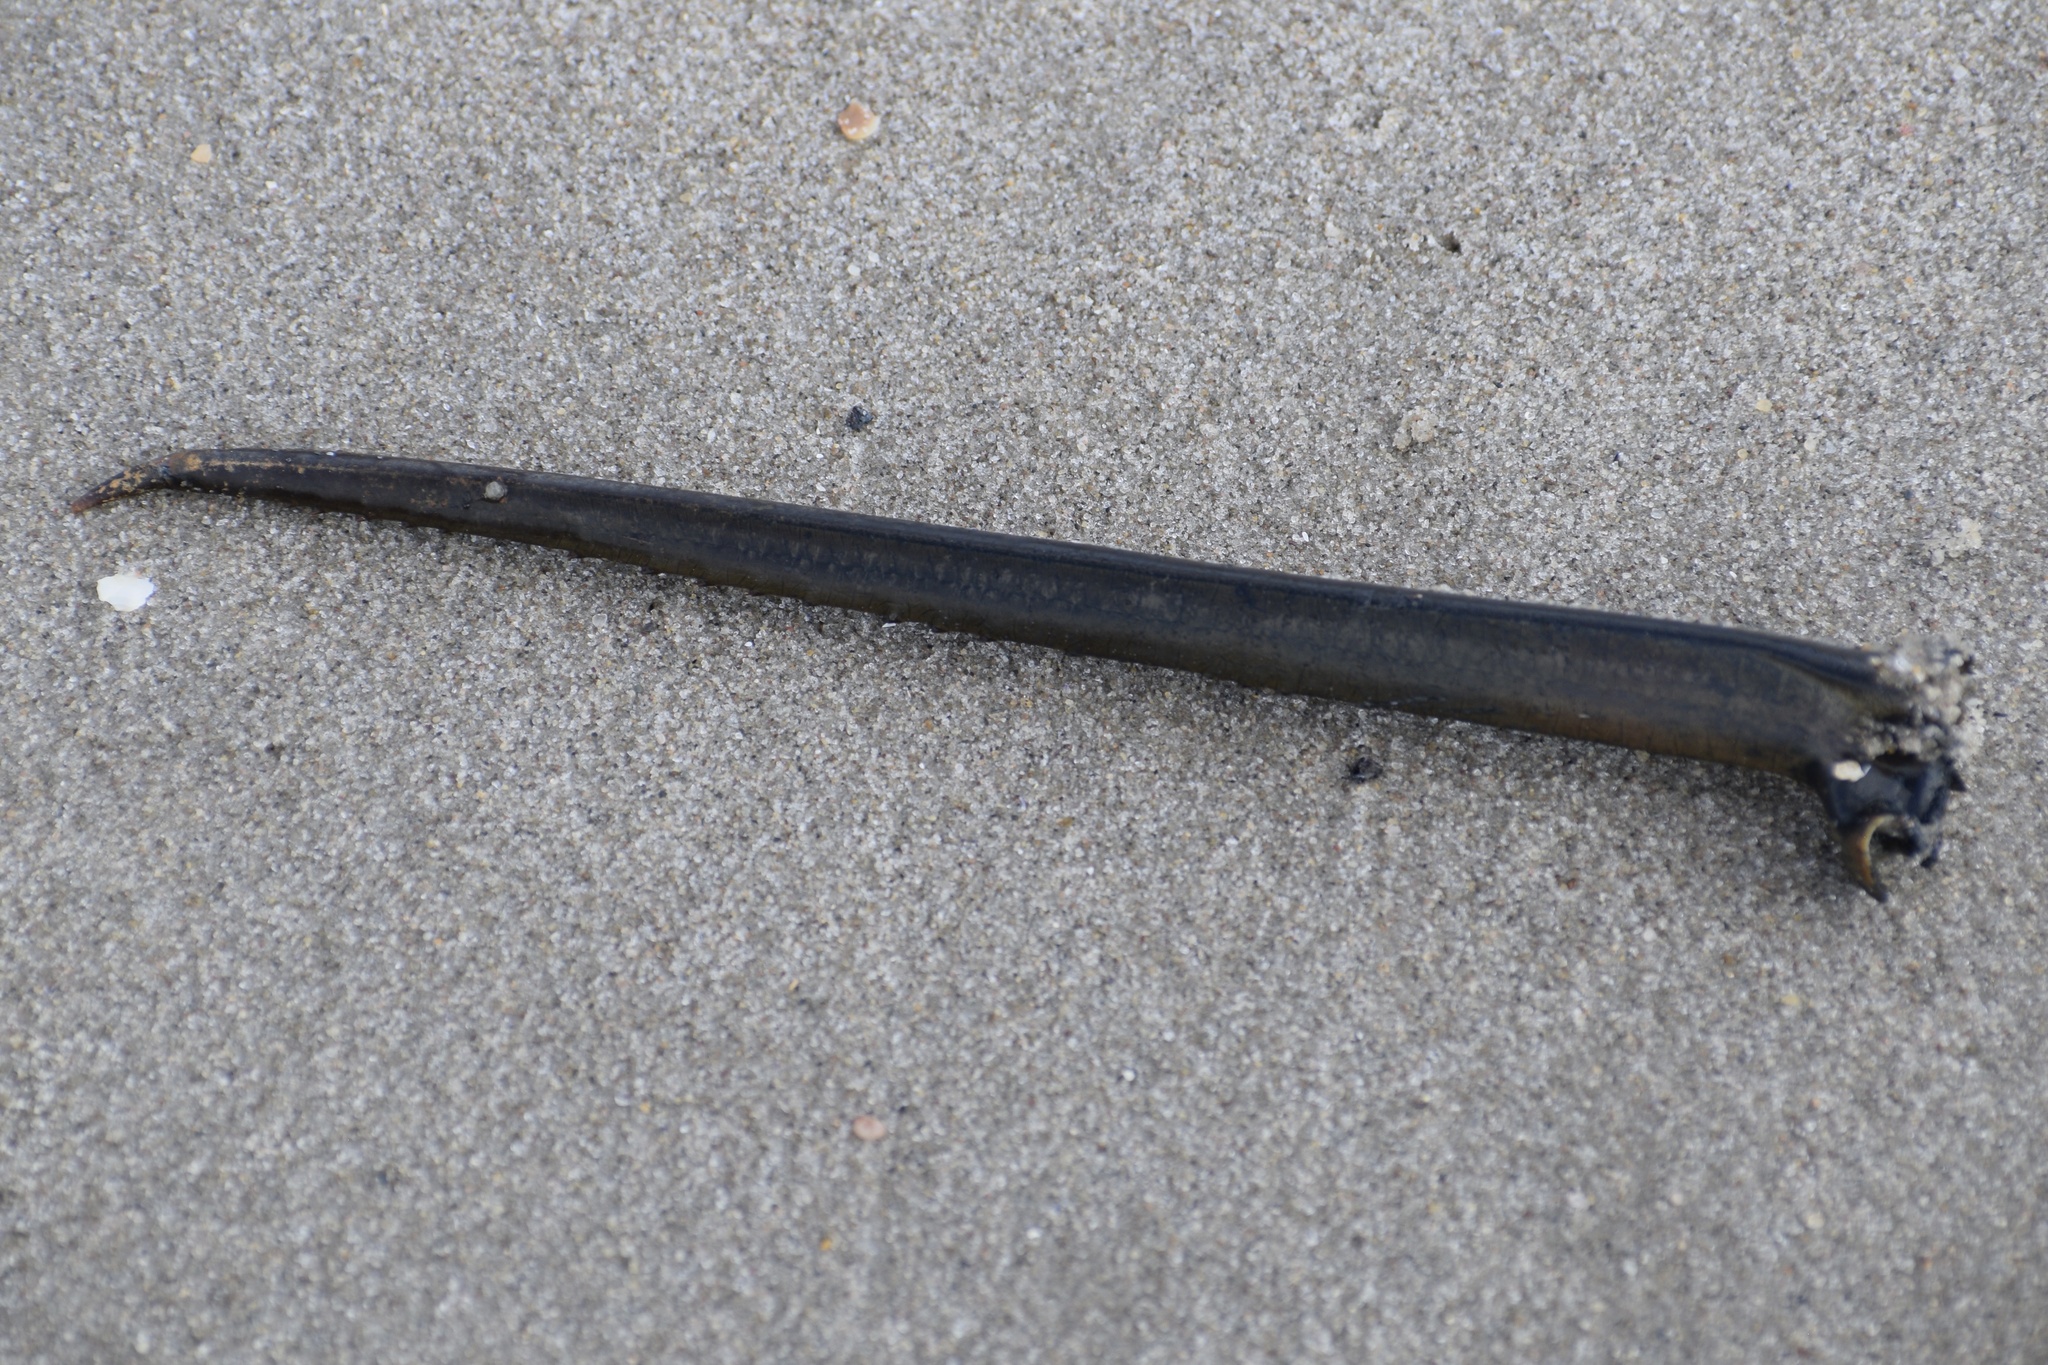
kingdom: Animalia
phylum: Arthropoda
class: Merostomata
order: Xiphosurida
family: Limulidae
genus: Limulus
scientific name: Limulus polyphemus
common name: Horseshoe crab
